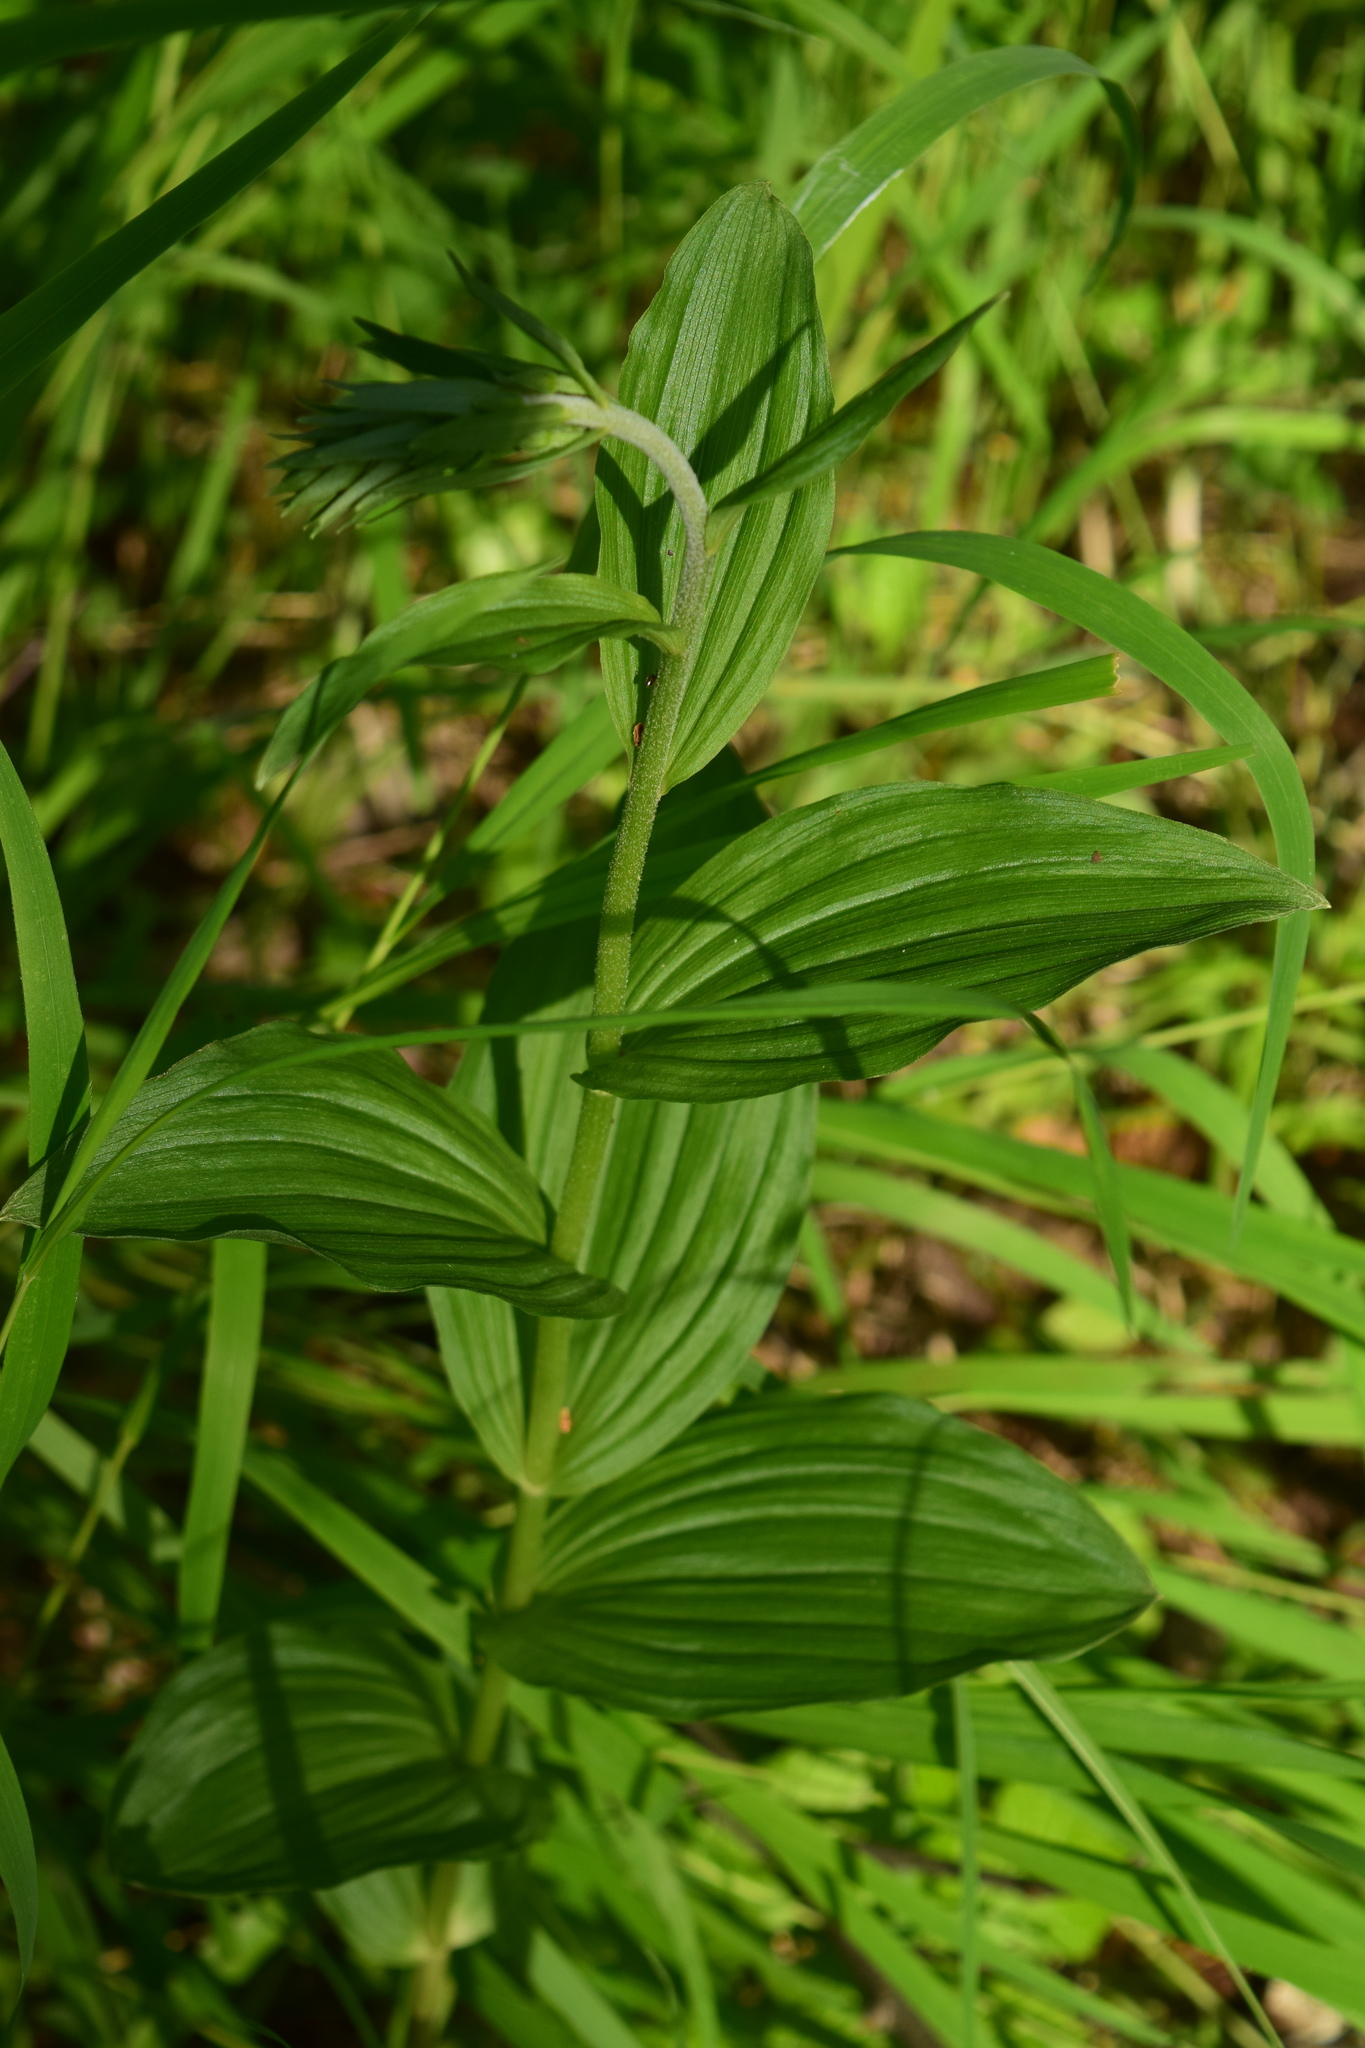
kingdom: Plantae
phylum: Tracheophyta
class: Liliopsida
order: Asparagales
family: Orchidaceae
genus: Epipactis
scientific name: Epipactis helleborine
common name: Broad-leaved helleborine
